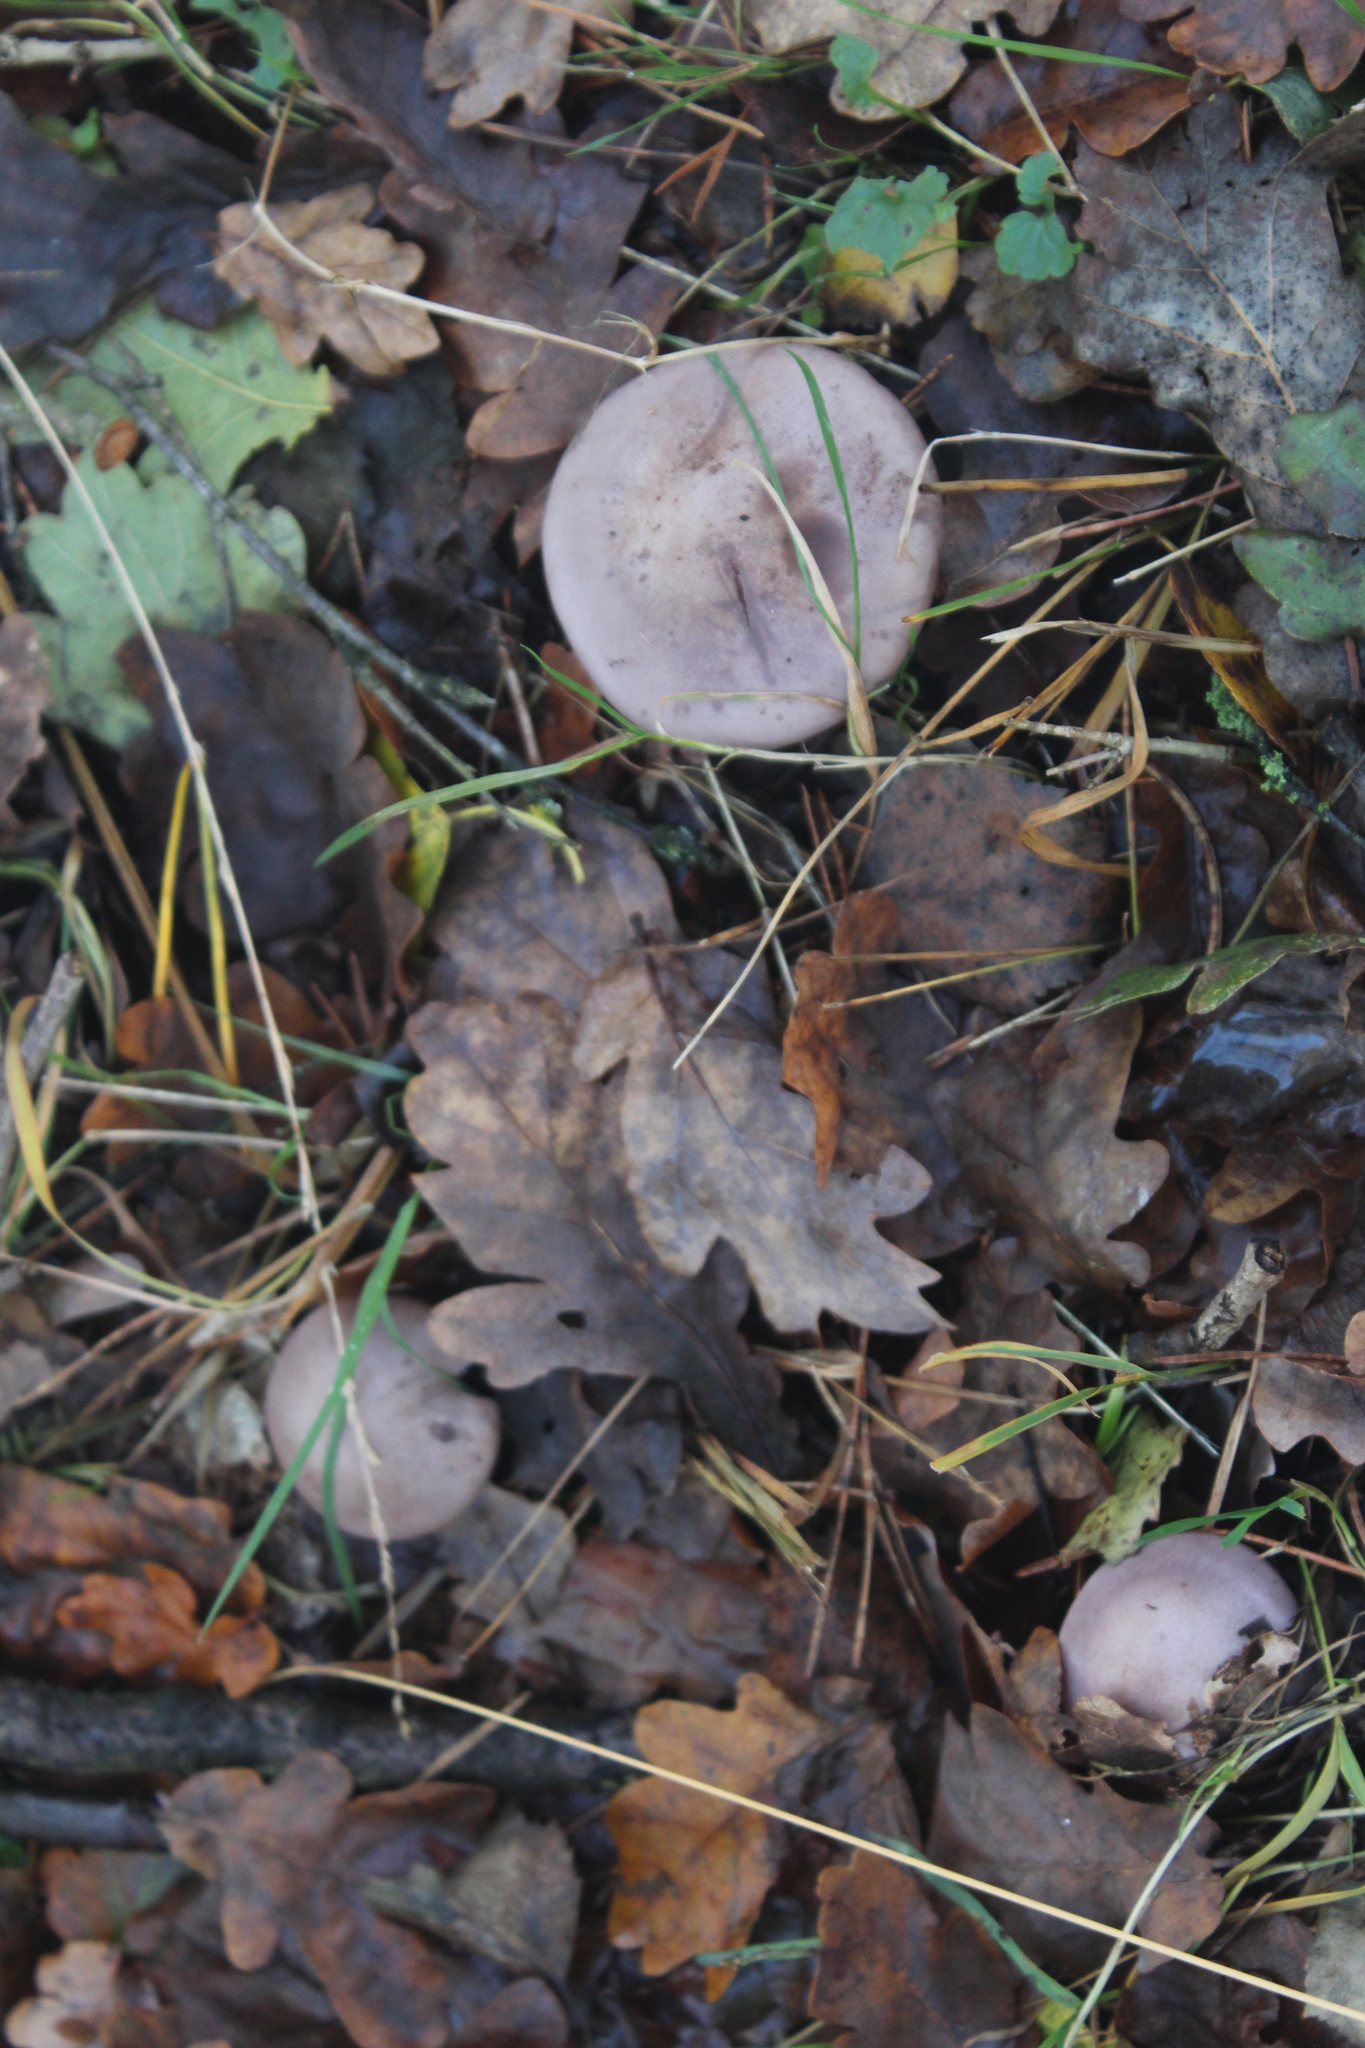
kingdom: Fungi
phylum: Basidiomycota
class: Agaricomycetes
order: Agaricales
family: Tricholomataceae
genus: Collybia
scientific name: Collybia
